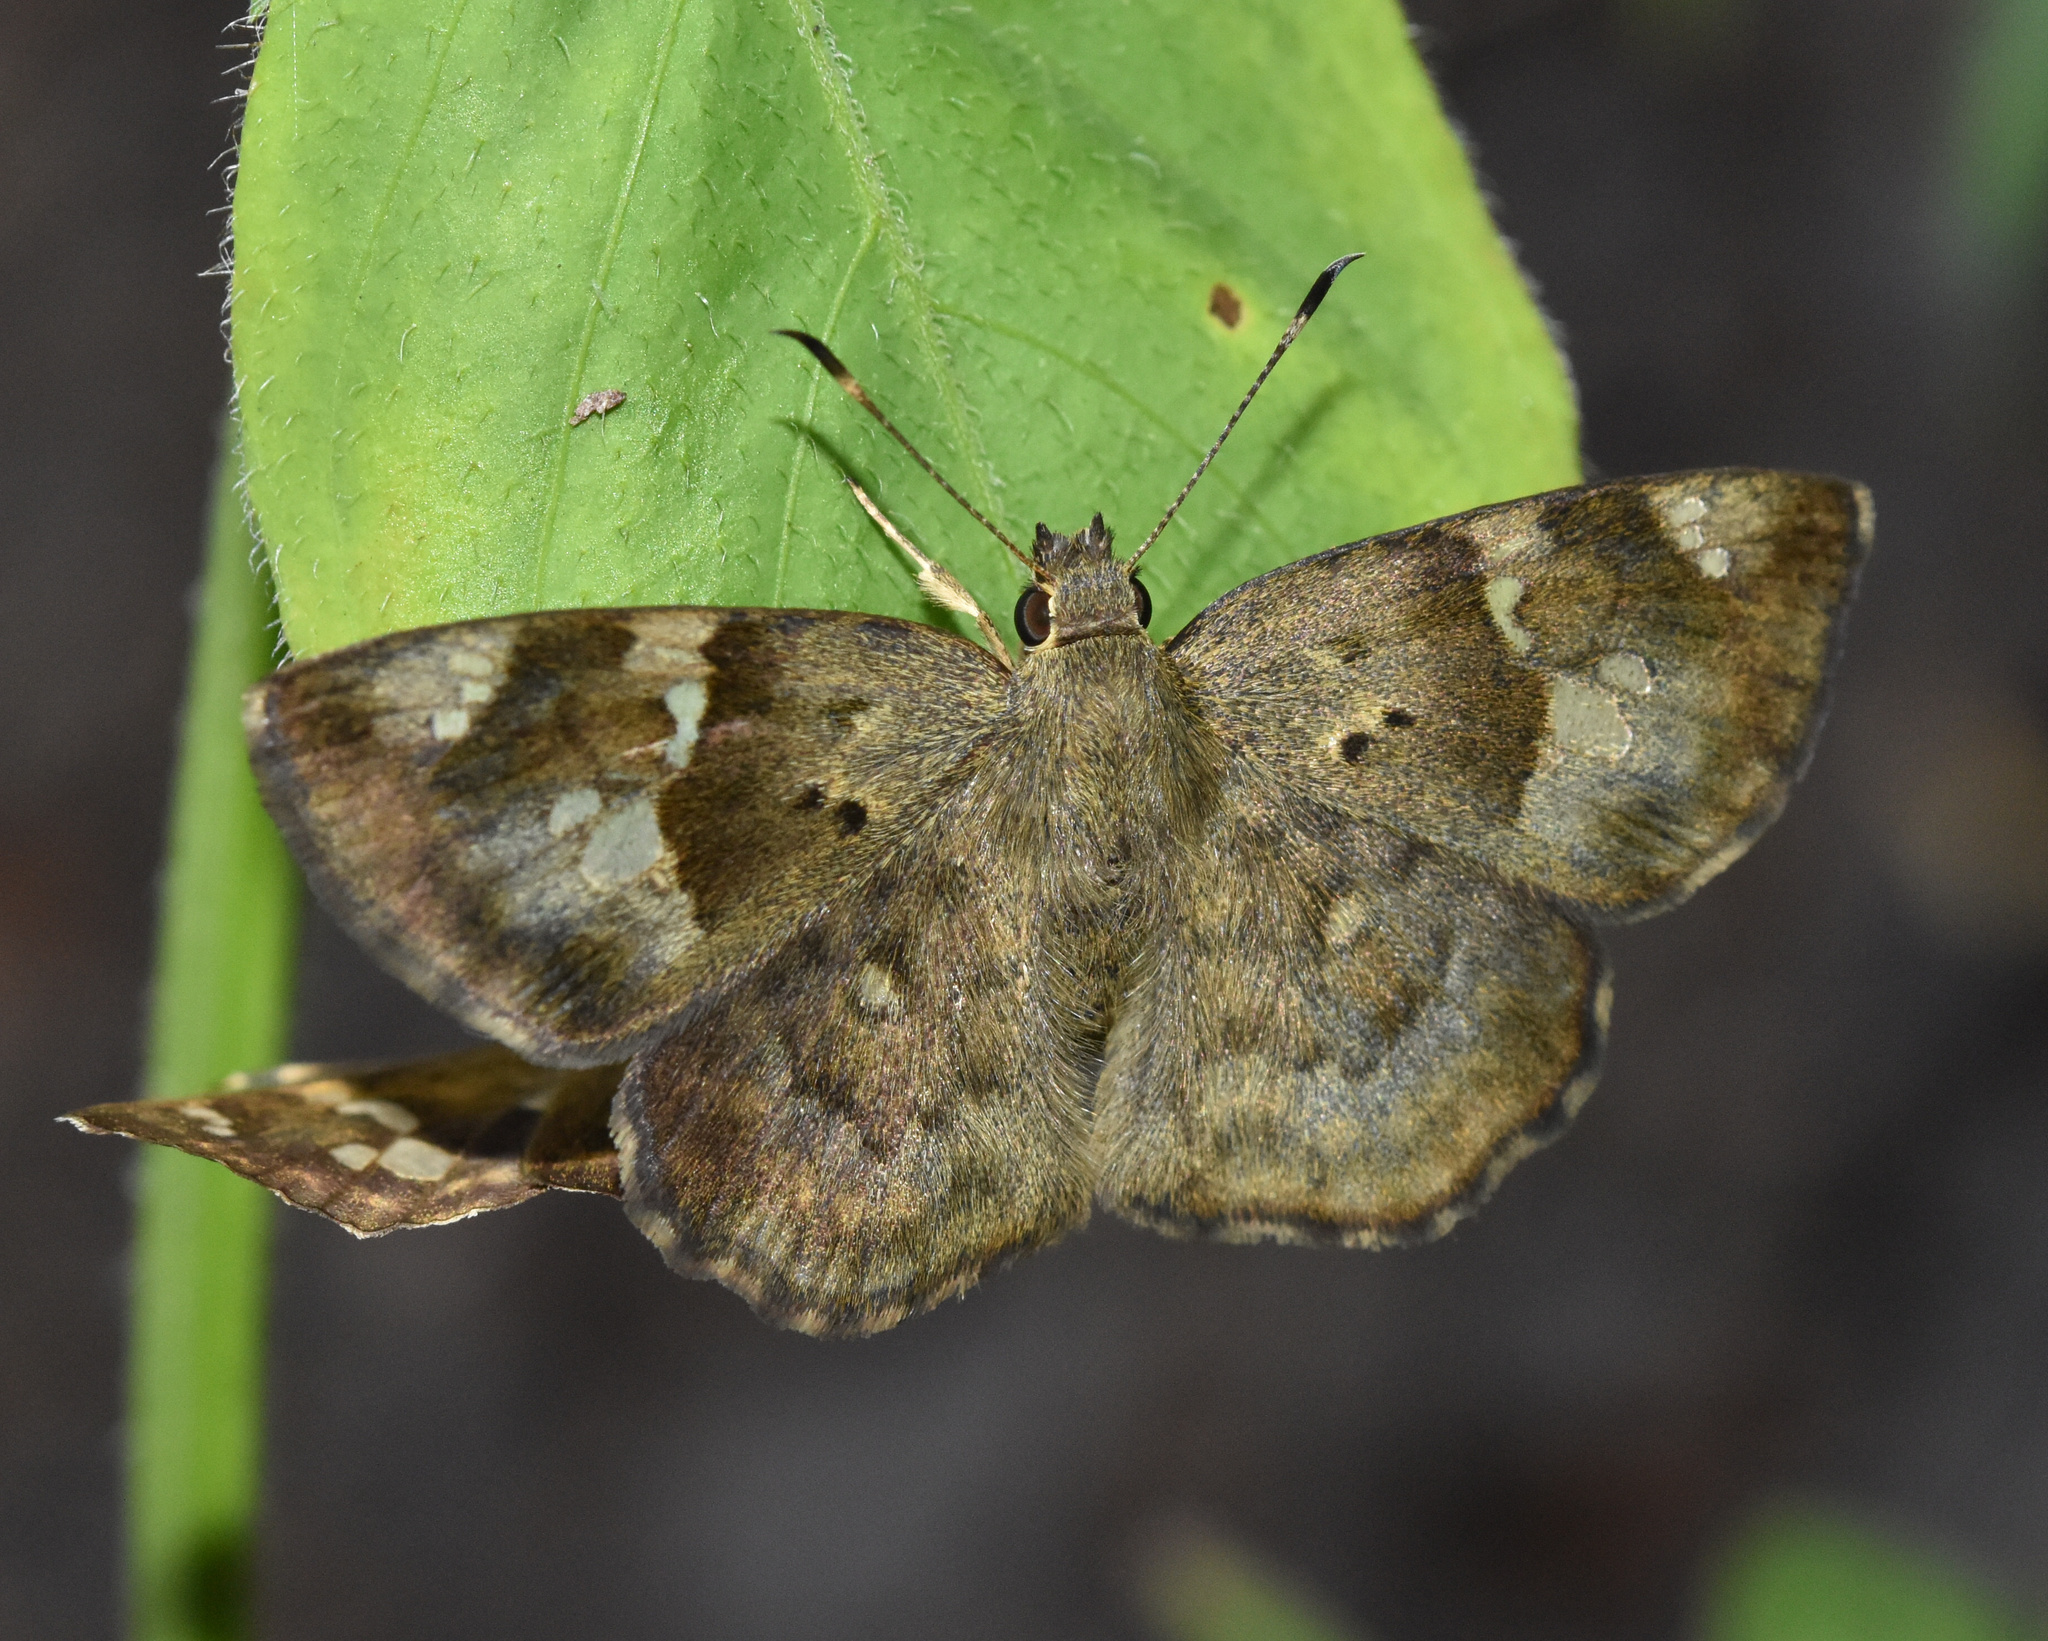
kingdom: Animalia
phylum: Arthropoda
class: Insecta
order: Lepidoptera
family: Hesperiidae
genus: Sarangesa
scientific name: Sarangesa phidyle
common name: Small elfin
